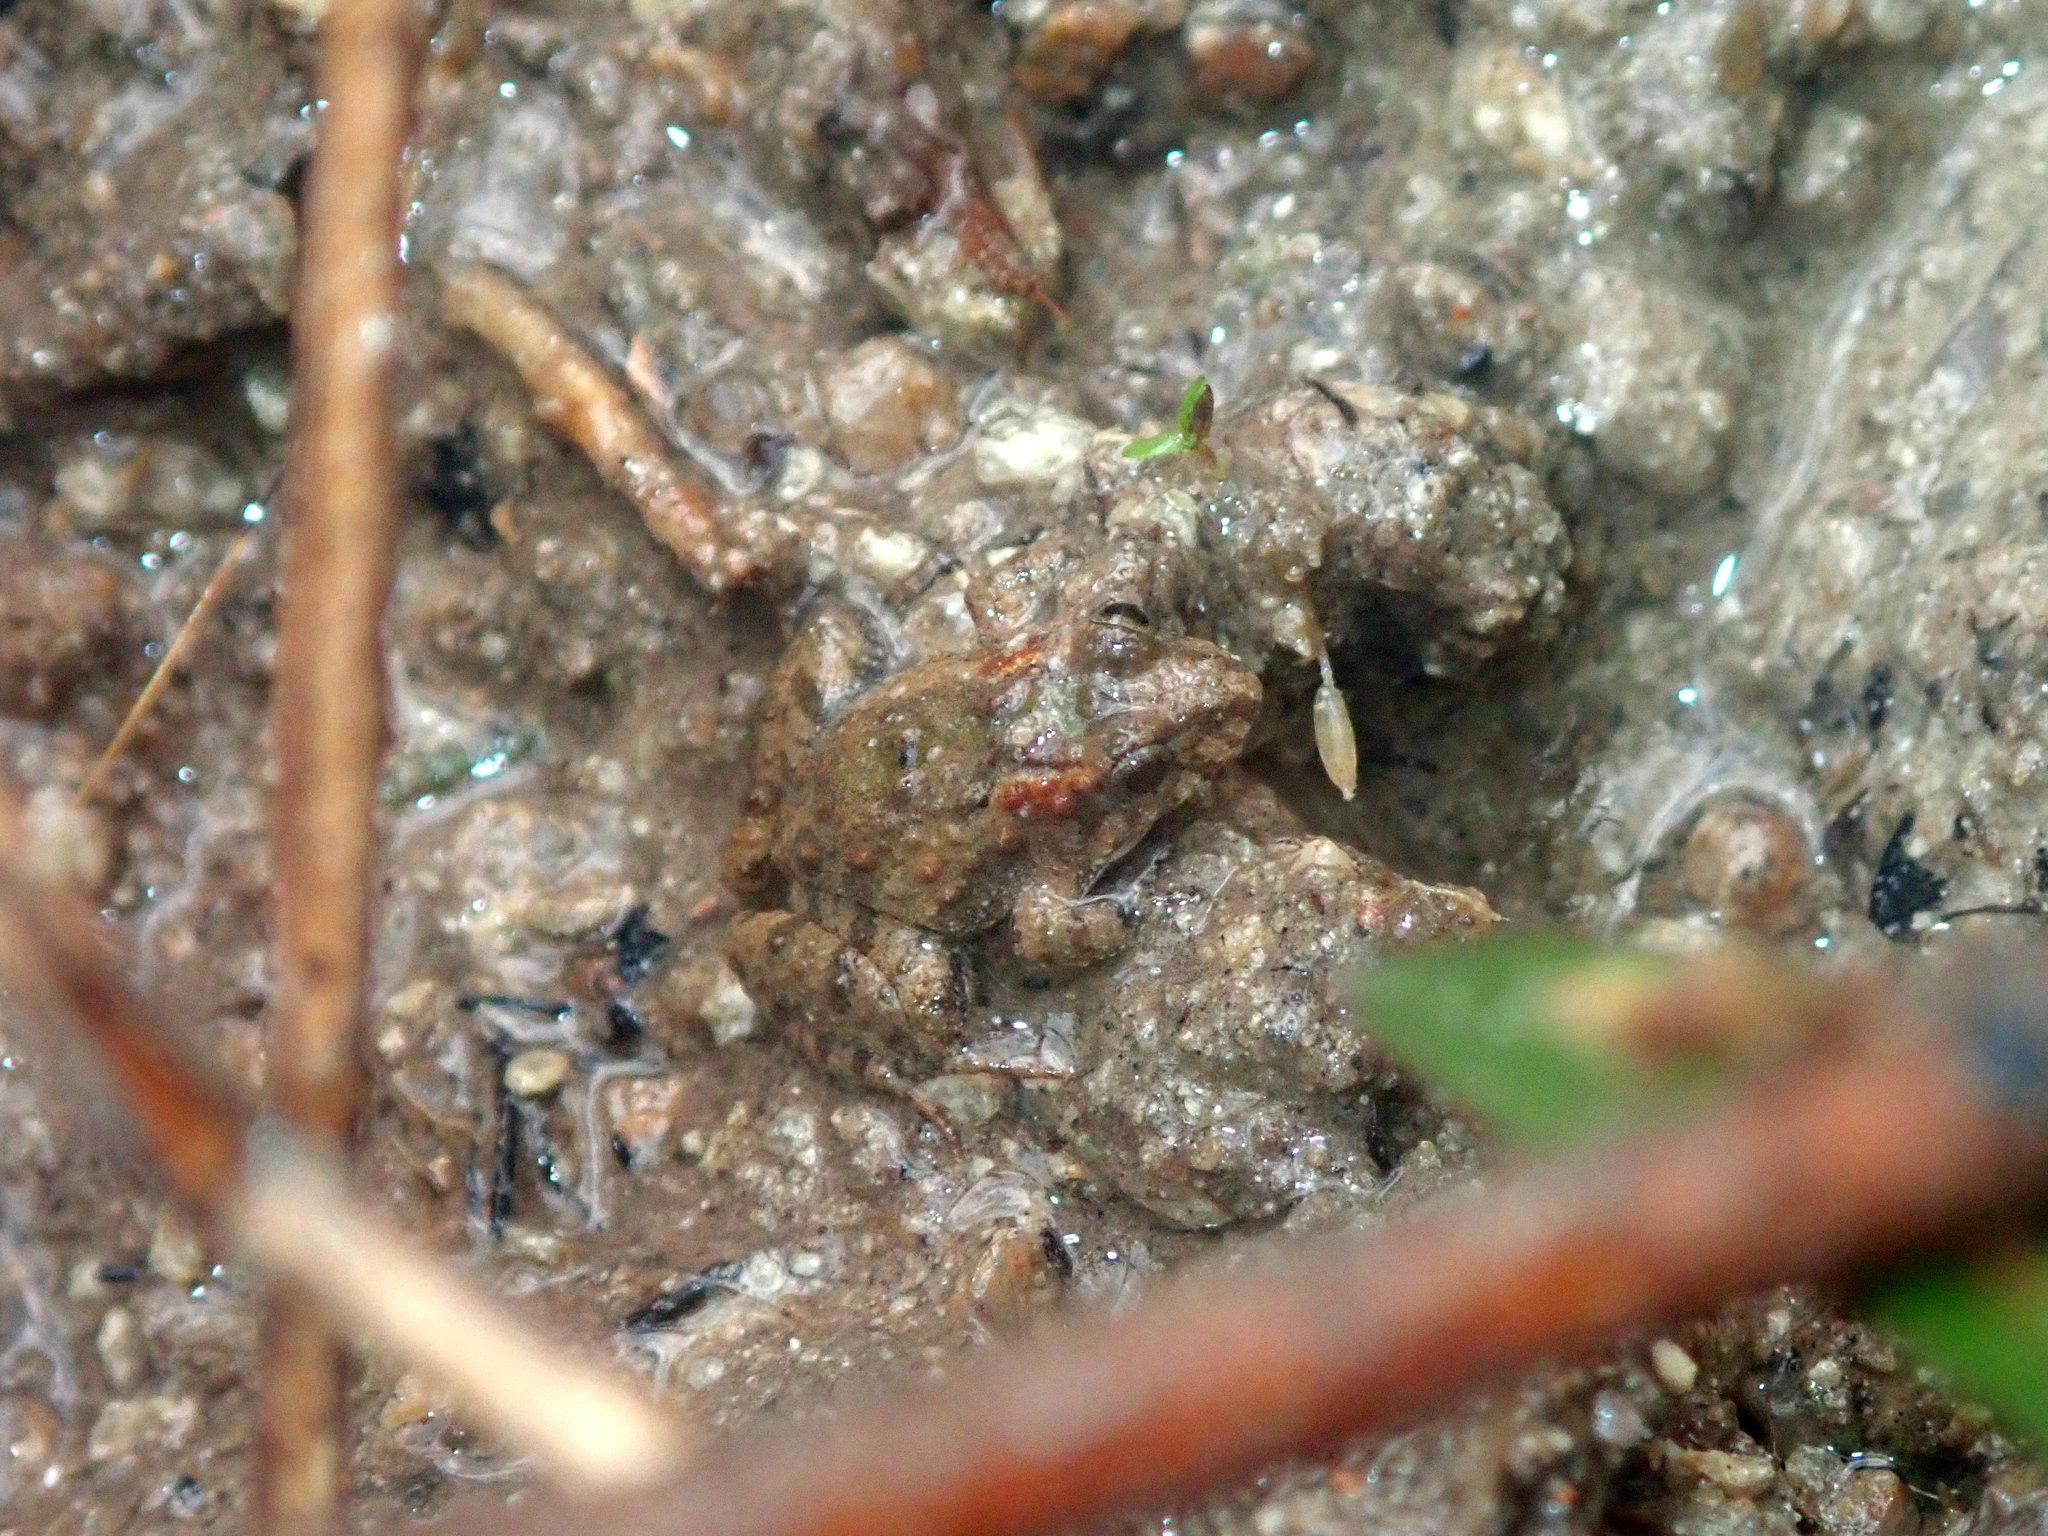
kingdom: Animalia
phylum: Chordata
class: Amphibia
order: Anura
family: Leptodactylidae
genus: Pseudopaludicola
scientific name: Pseudopaludicola canga
